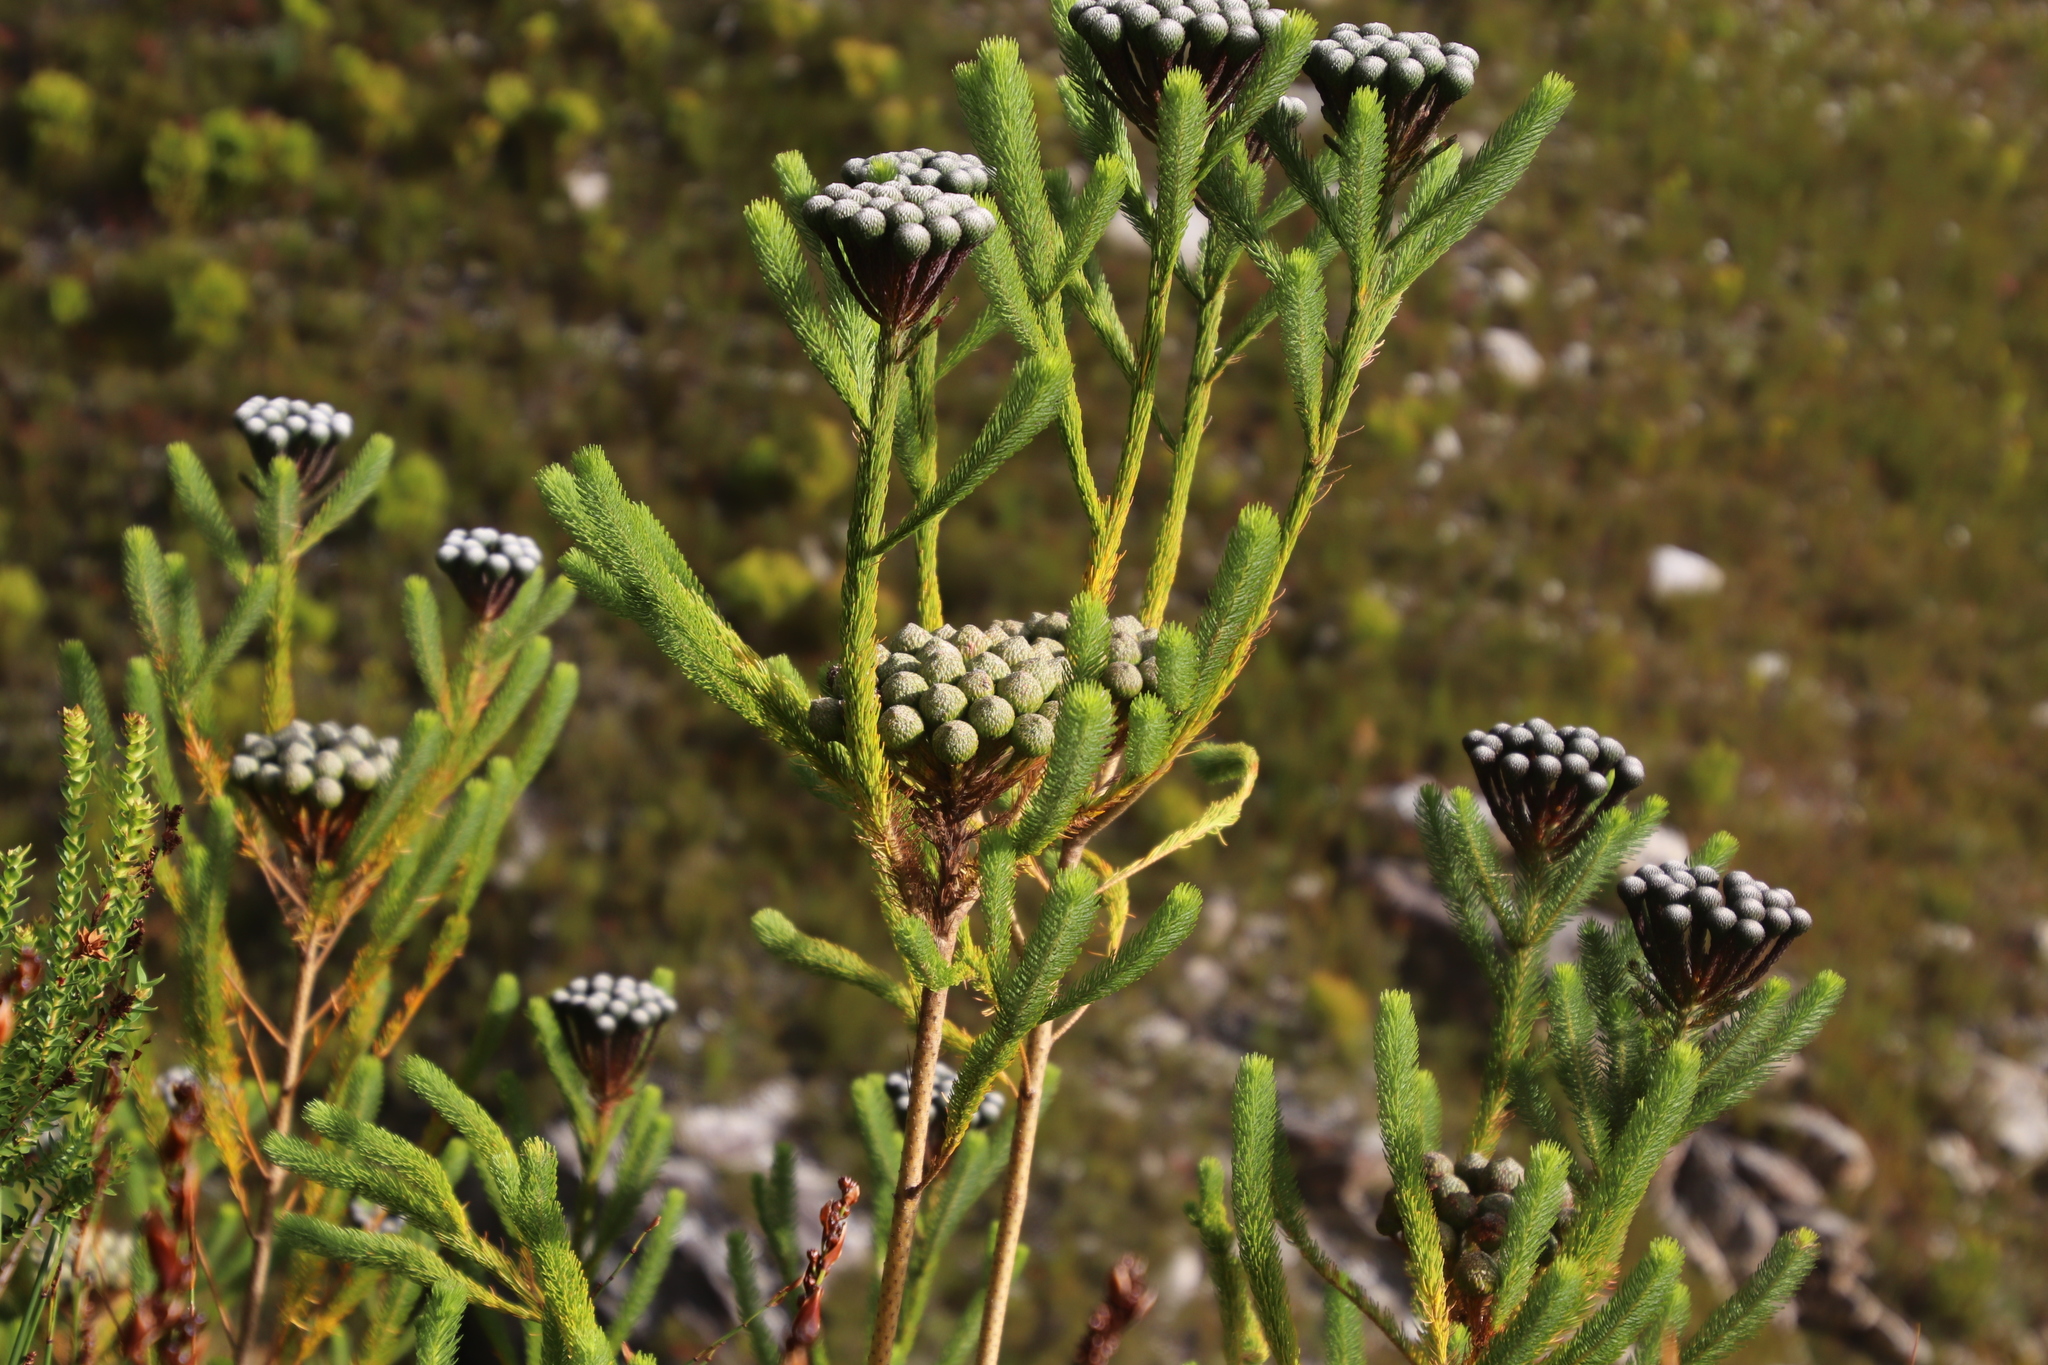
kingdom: Plantae
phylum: Tracheophyta
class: Magnoliopsida
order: Bruniales
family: Bruniaceae
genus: Berzelia
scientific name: Berzelia albiflora
